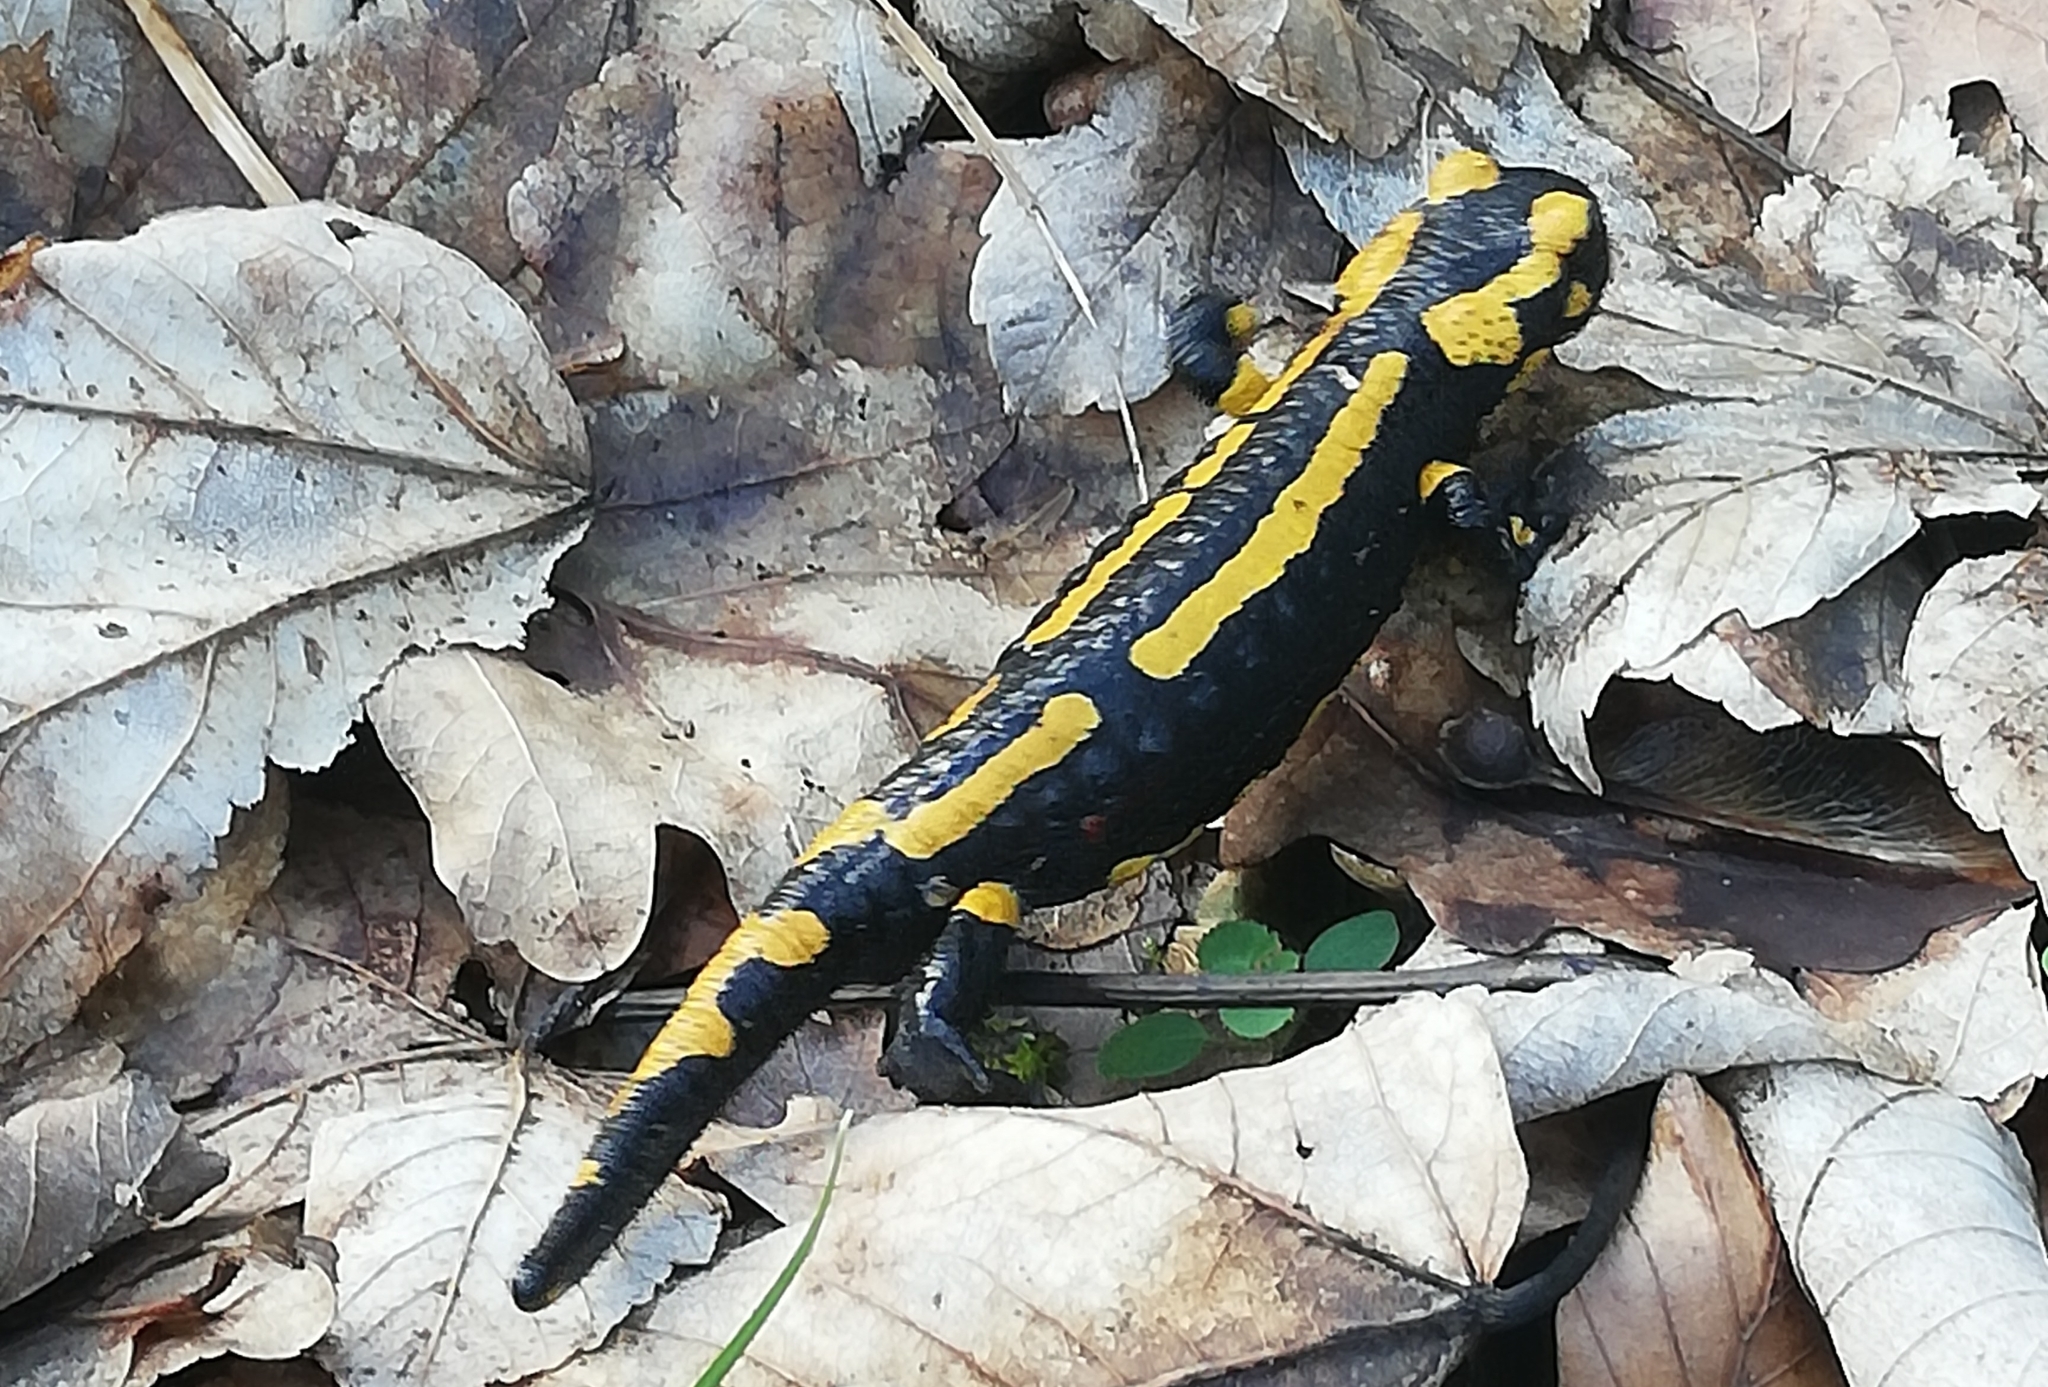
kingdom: Animalia
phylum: Chordata
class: Amphibia
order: Caudata
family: Salamandridae
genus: Salamandra
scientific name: Salamandra salamandra
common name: Fire salamander
